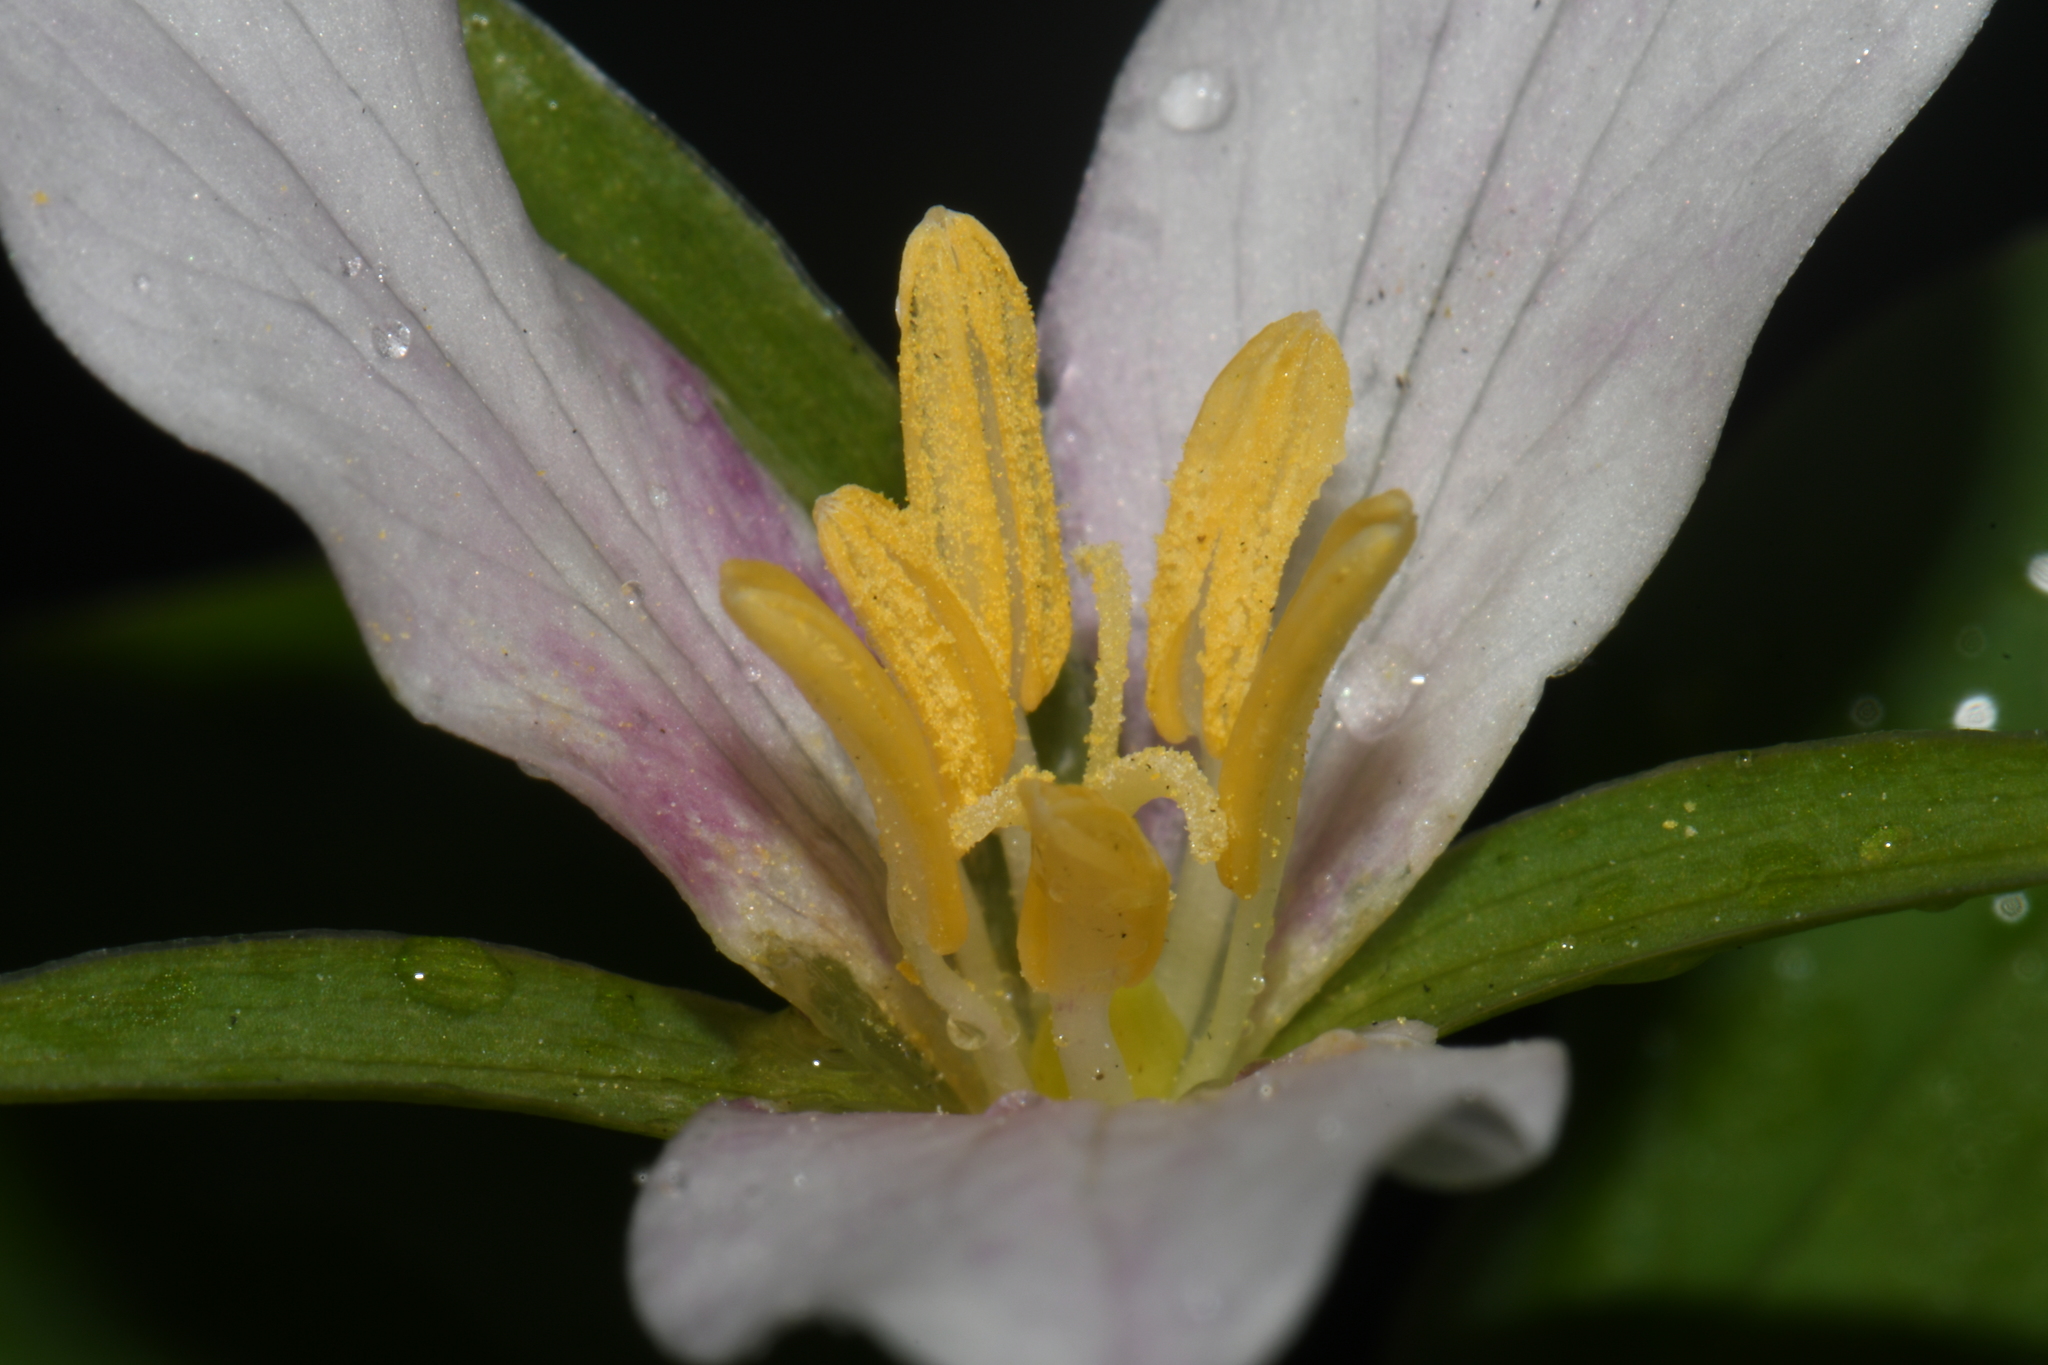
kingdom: Plantae
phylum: Tracheophyta
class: Liliopsida
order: Liliales
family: Melanthiaceae
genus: Trillium
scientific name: Trillium ovatum
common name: Pacific trillium
